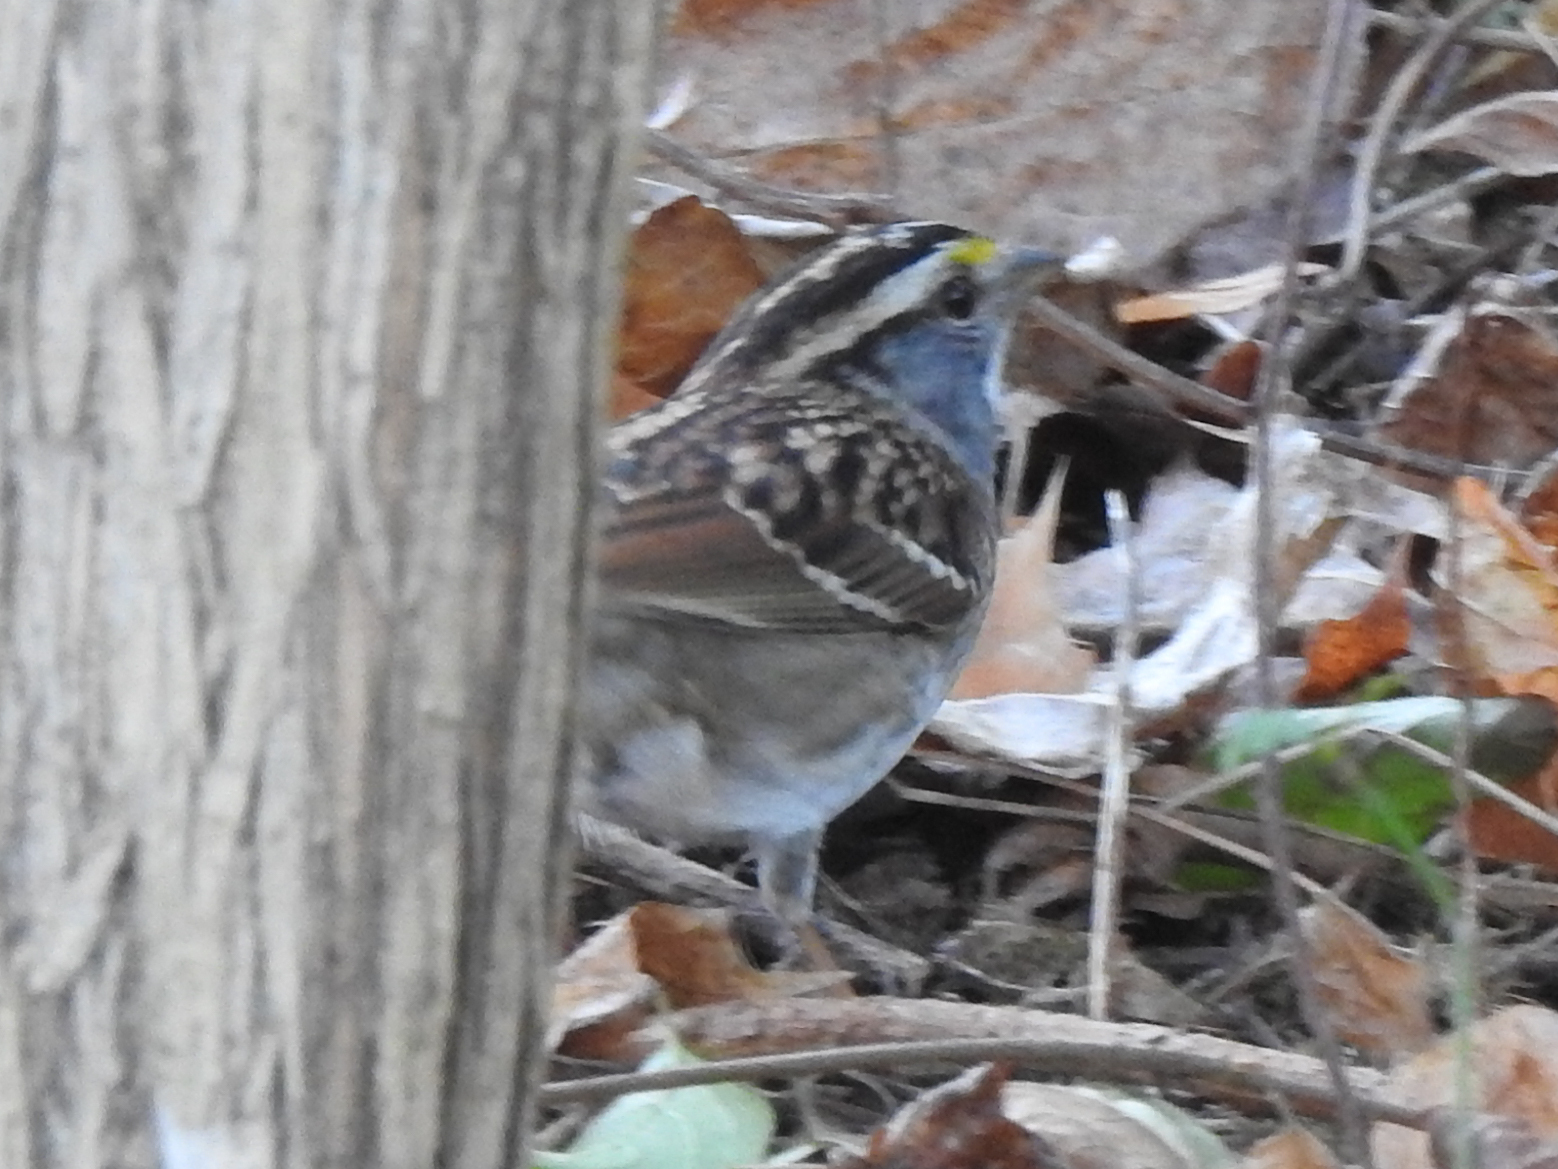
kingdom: Animalia
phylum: Chordata
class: Aves
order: Passeriformes
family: Passerellidae
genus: Zonotrichia
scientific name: Zonotrichia albicollis
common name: White-throated sparrow
